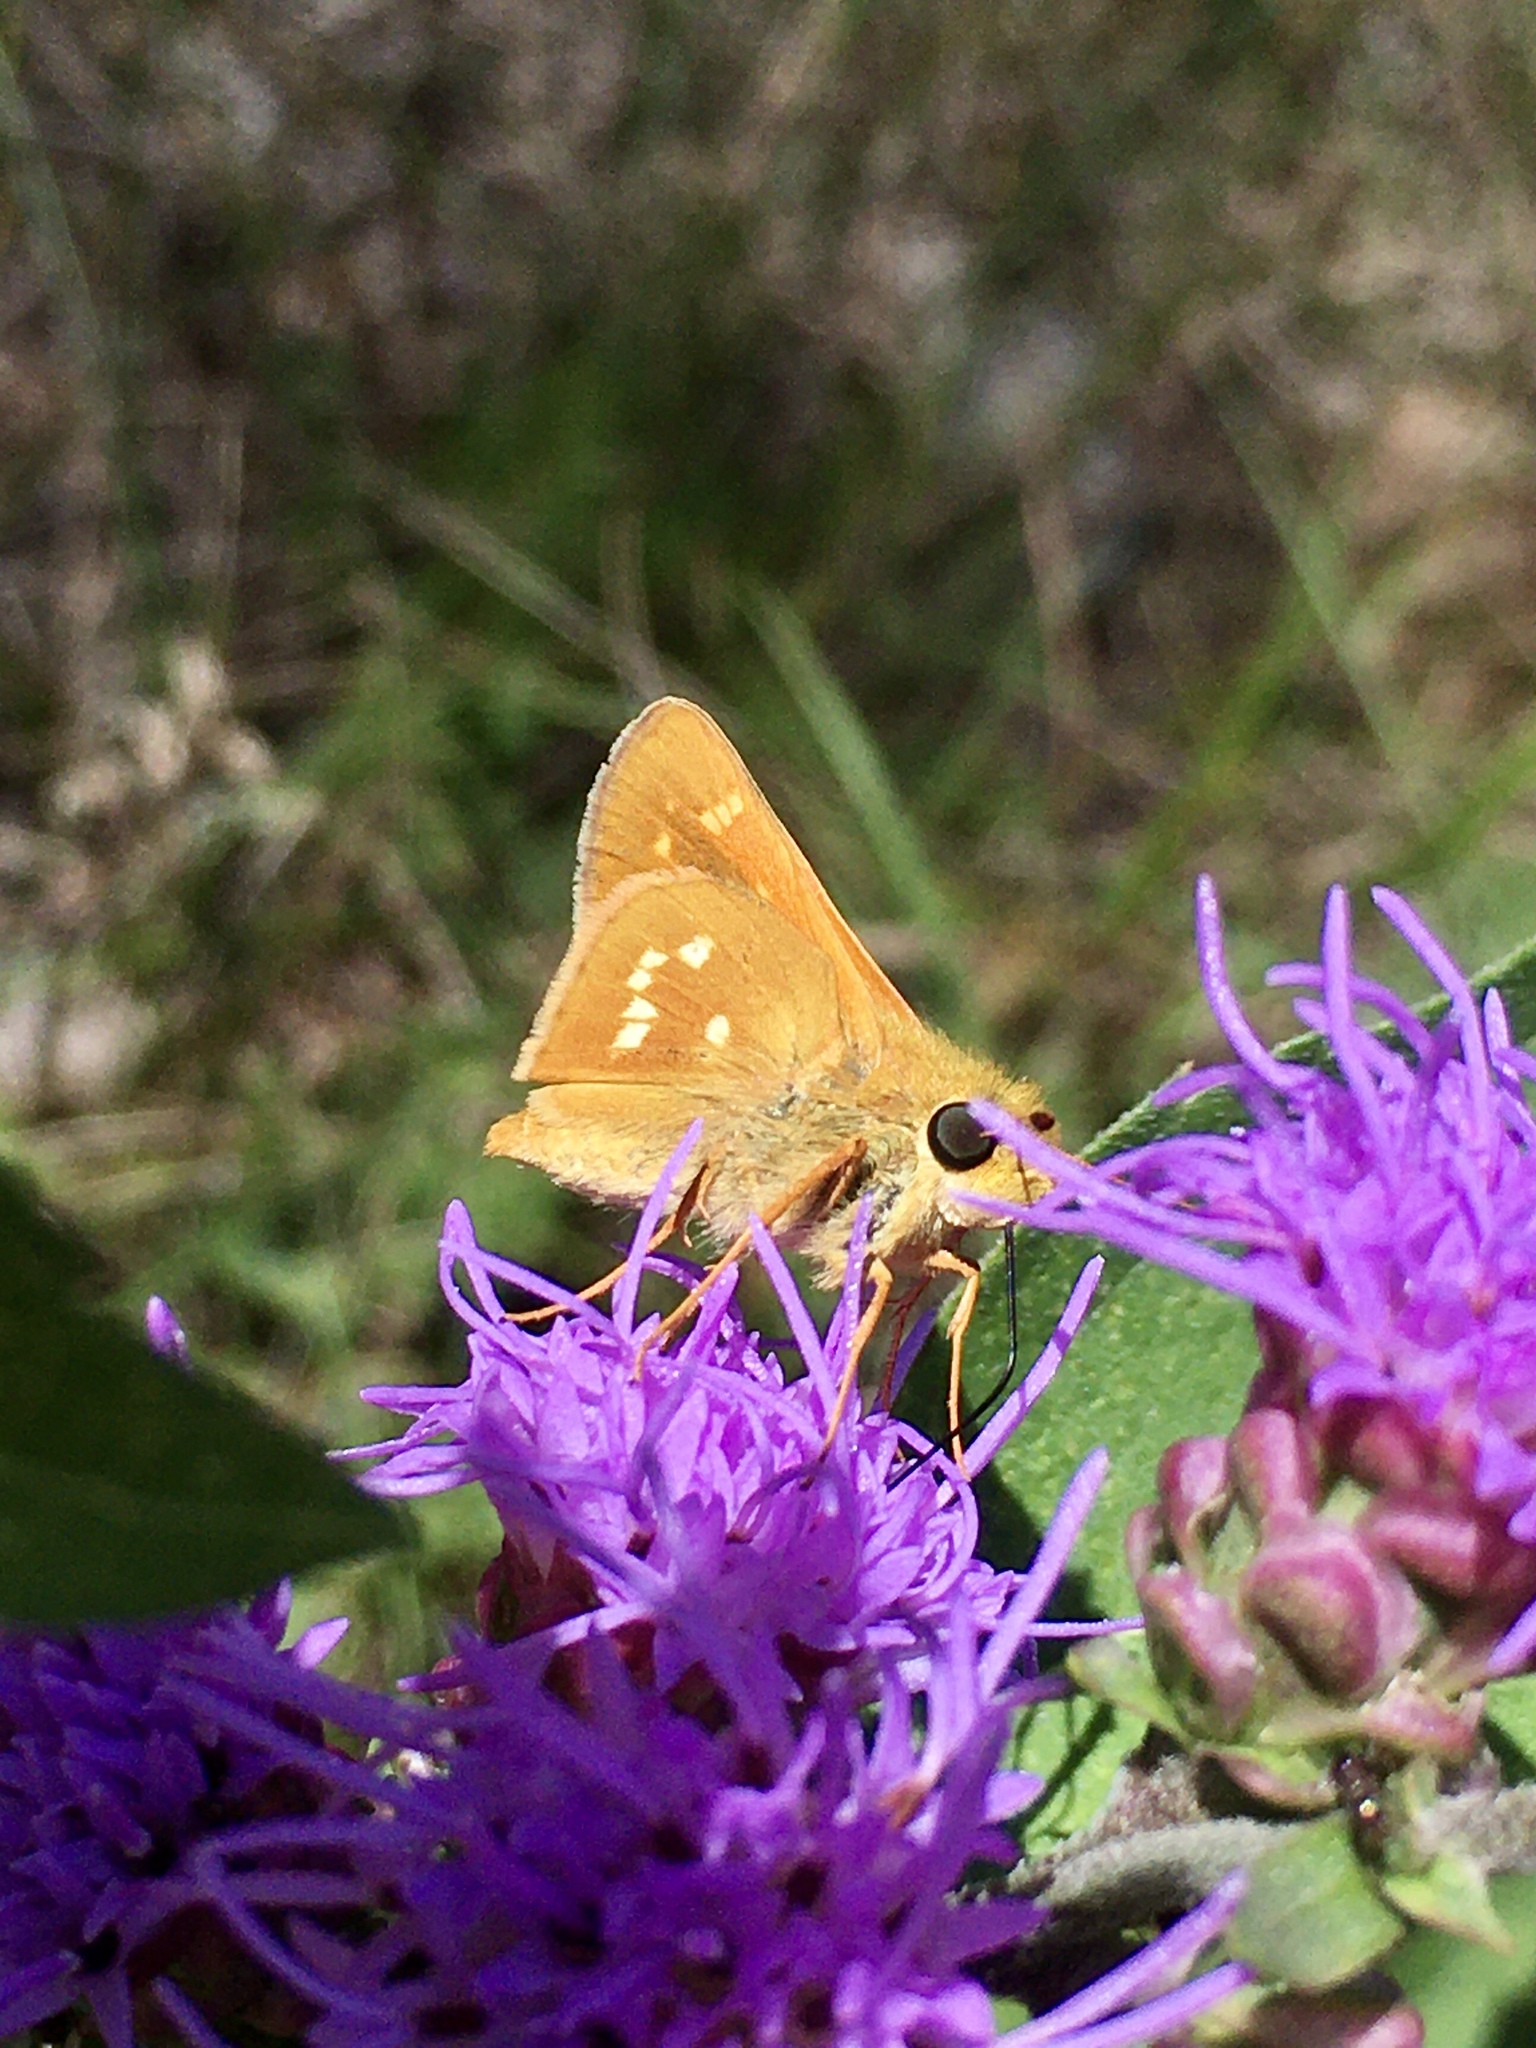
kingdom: Animalia
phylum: Arthropoda
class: Insecta
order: Lepidoptera
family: Hesperiidae
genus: Hesperia
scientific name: Hesperia leonardus
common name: Leonard's skipper
